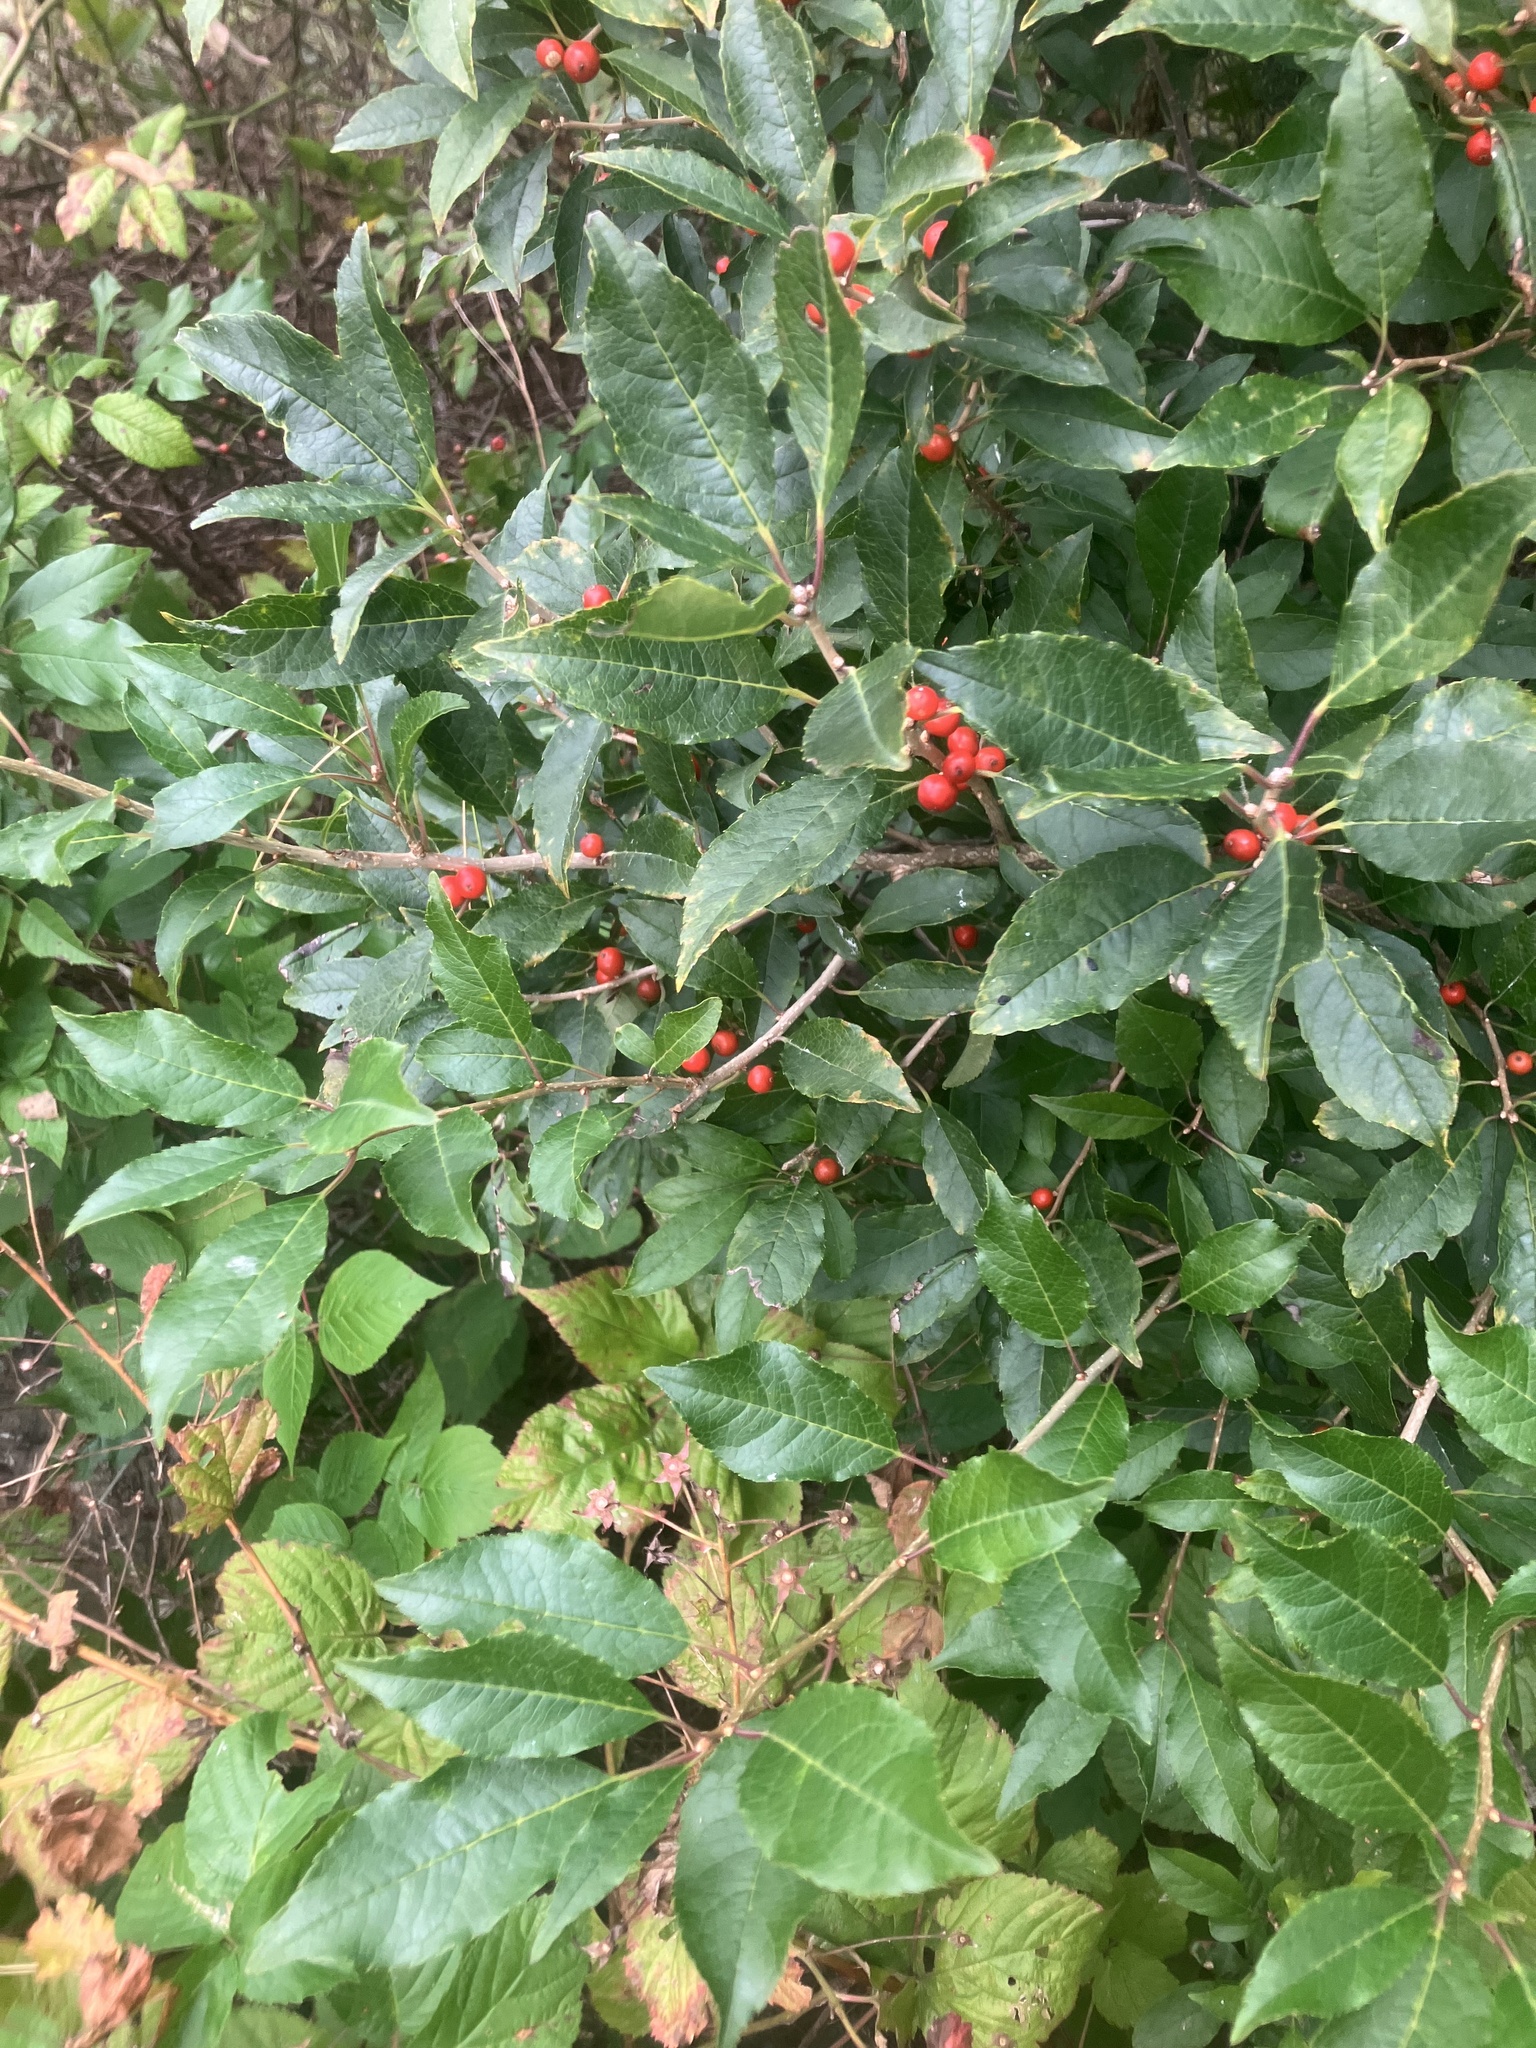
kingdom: Plantae
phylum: Tracheophyta
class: Magnoliopsida
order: Aquifoliales
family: Aquifoliaceae
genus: Ilex
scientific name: Ilex verticillata
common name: Virginia winterberry
